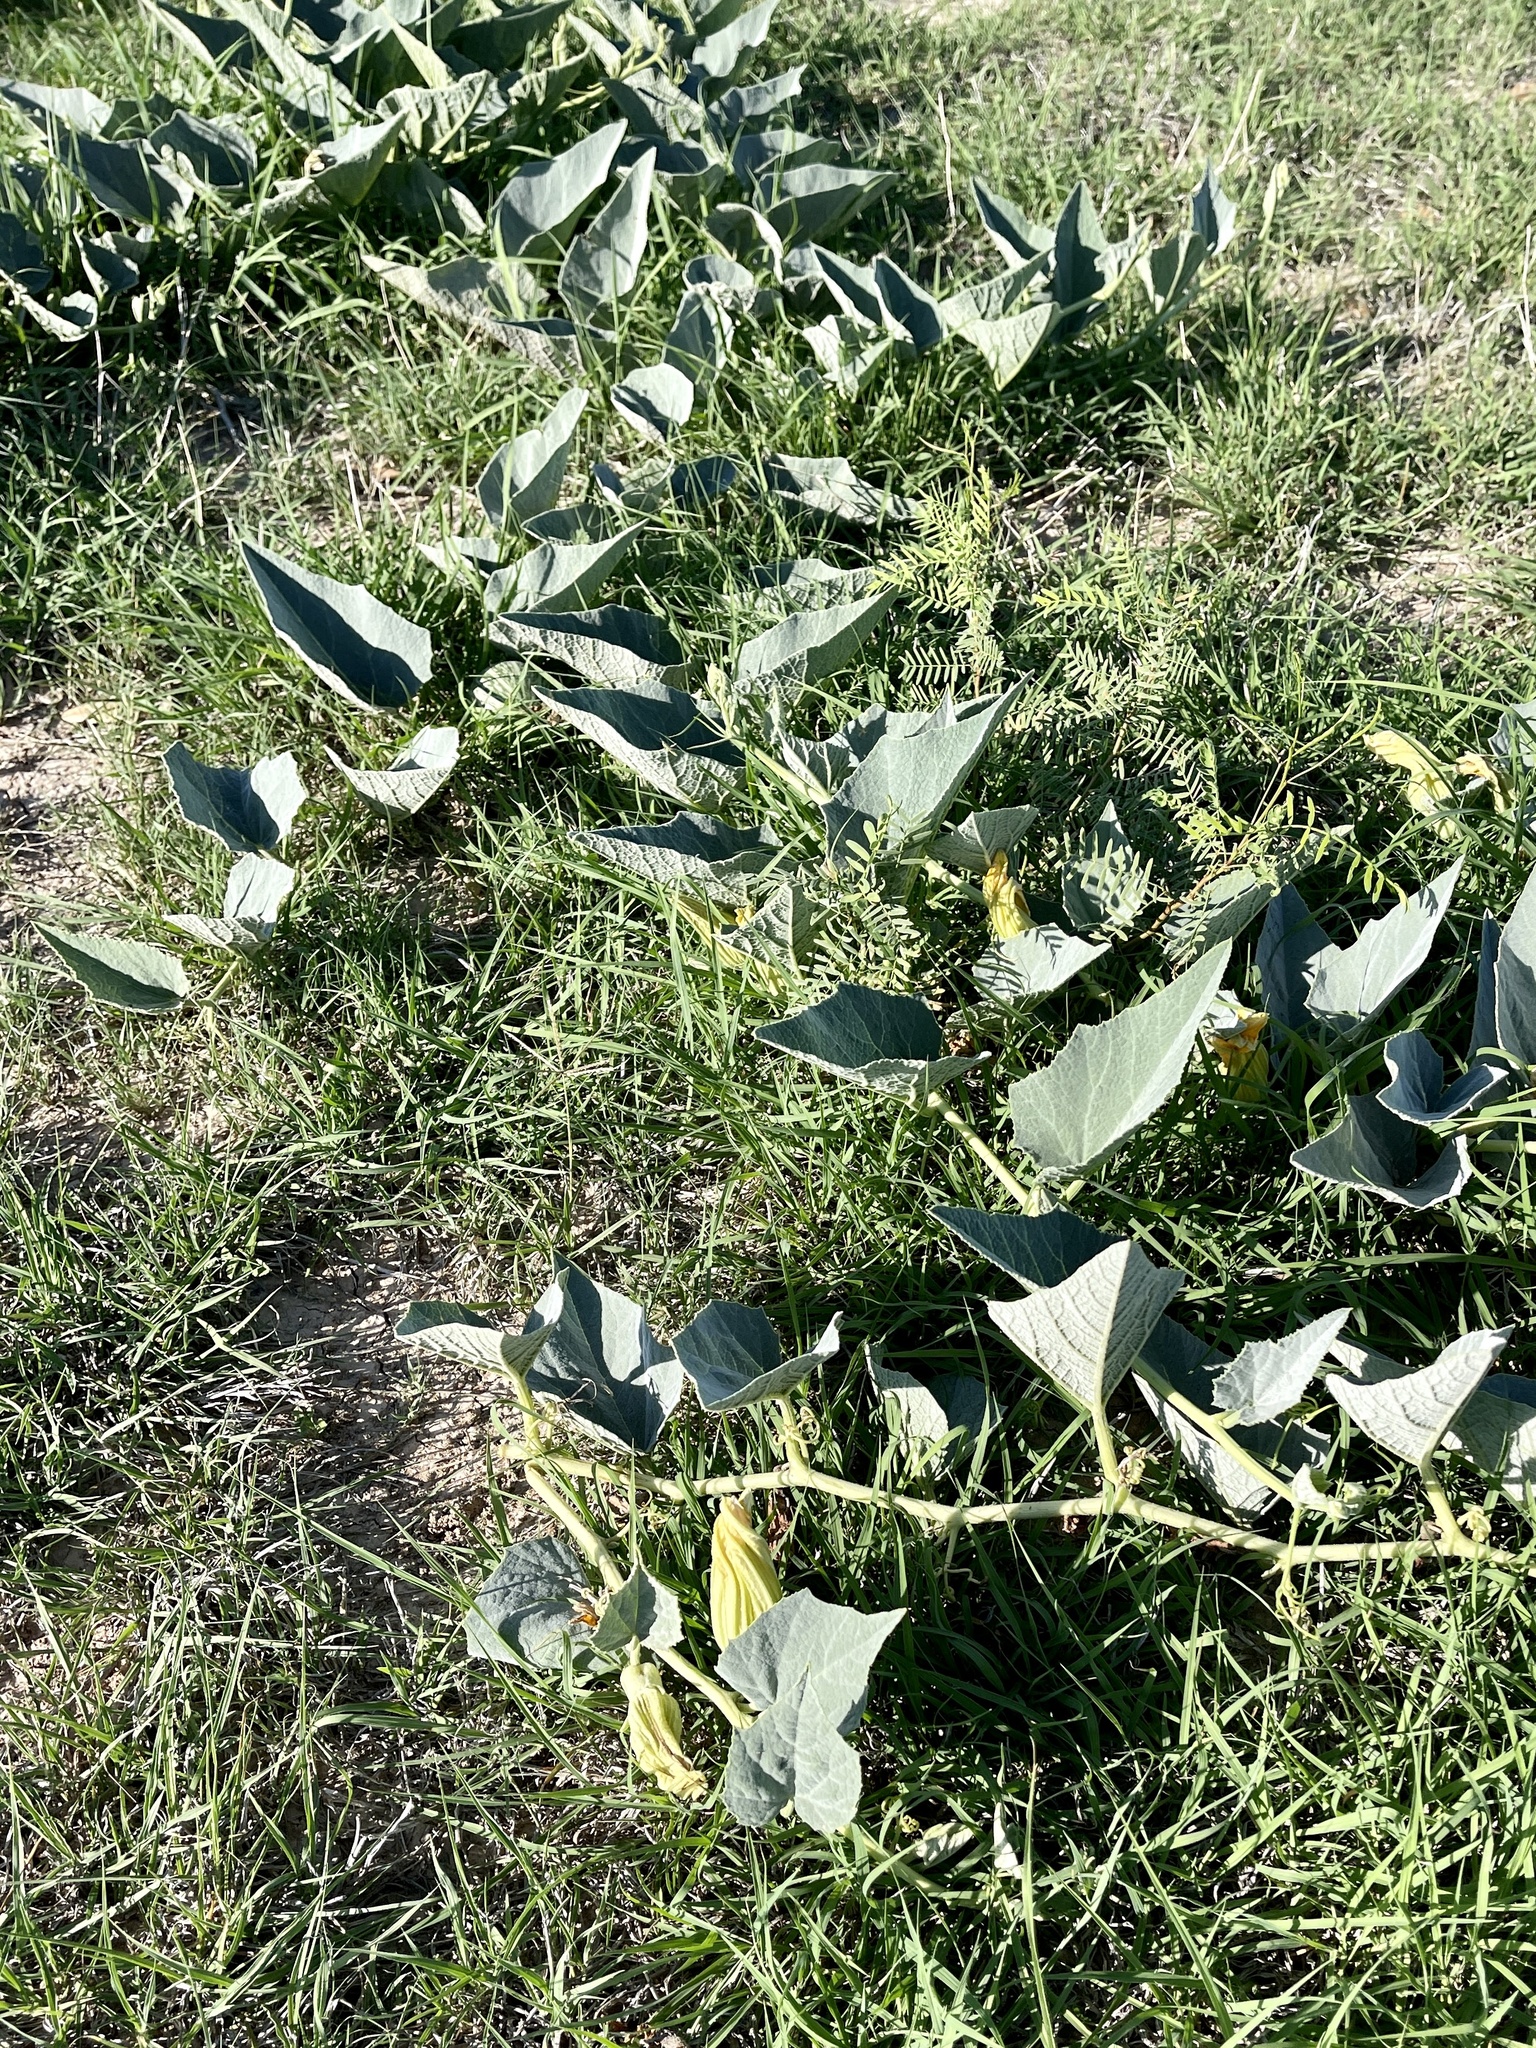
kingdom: Plantae
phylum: Tracheophyta
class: Magnoliopsida
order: Cucurbitales
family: Cucurbitaceae
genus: Cucurbita
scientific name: Cucurbita foetidissima
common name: Buffalo gourd
